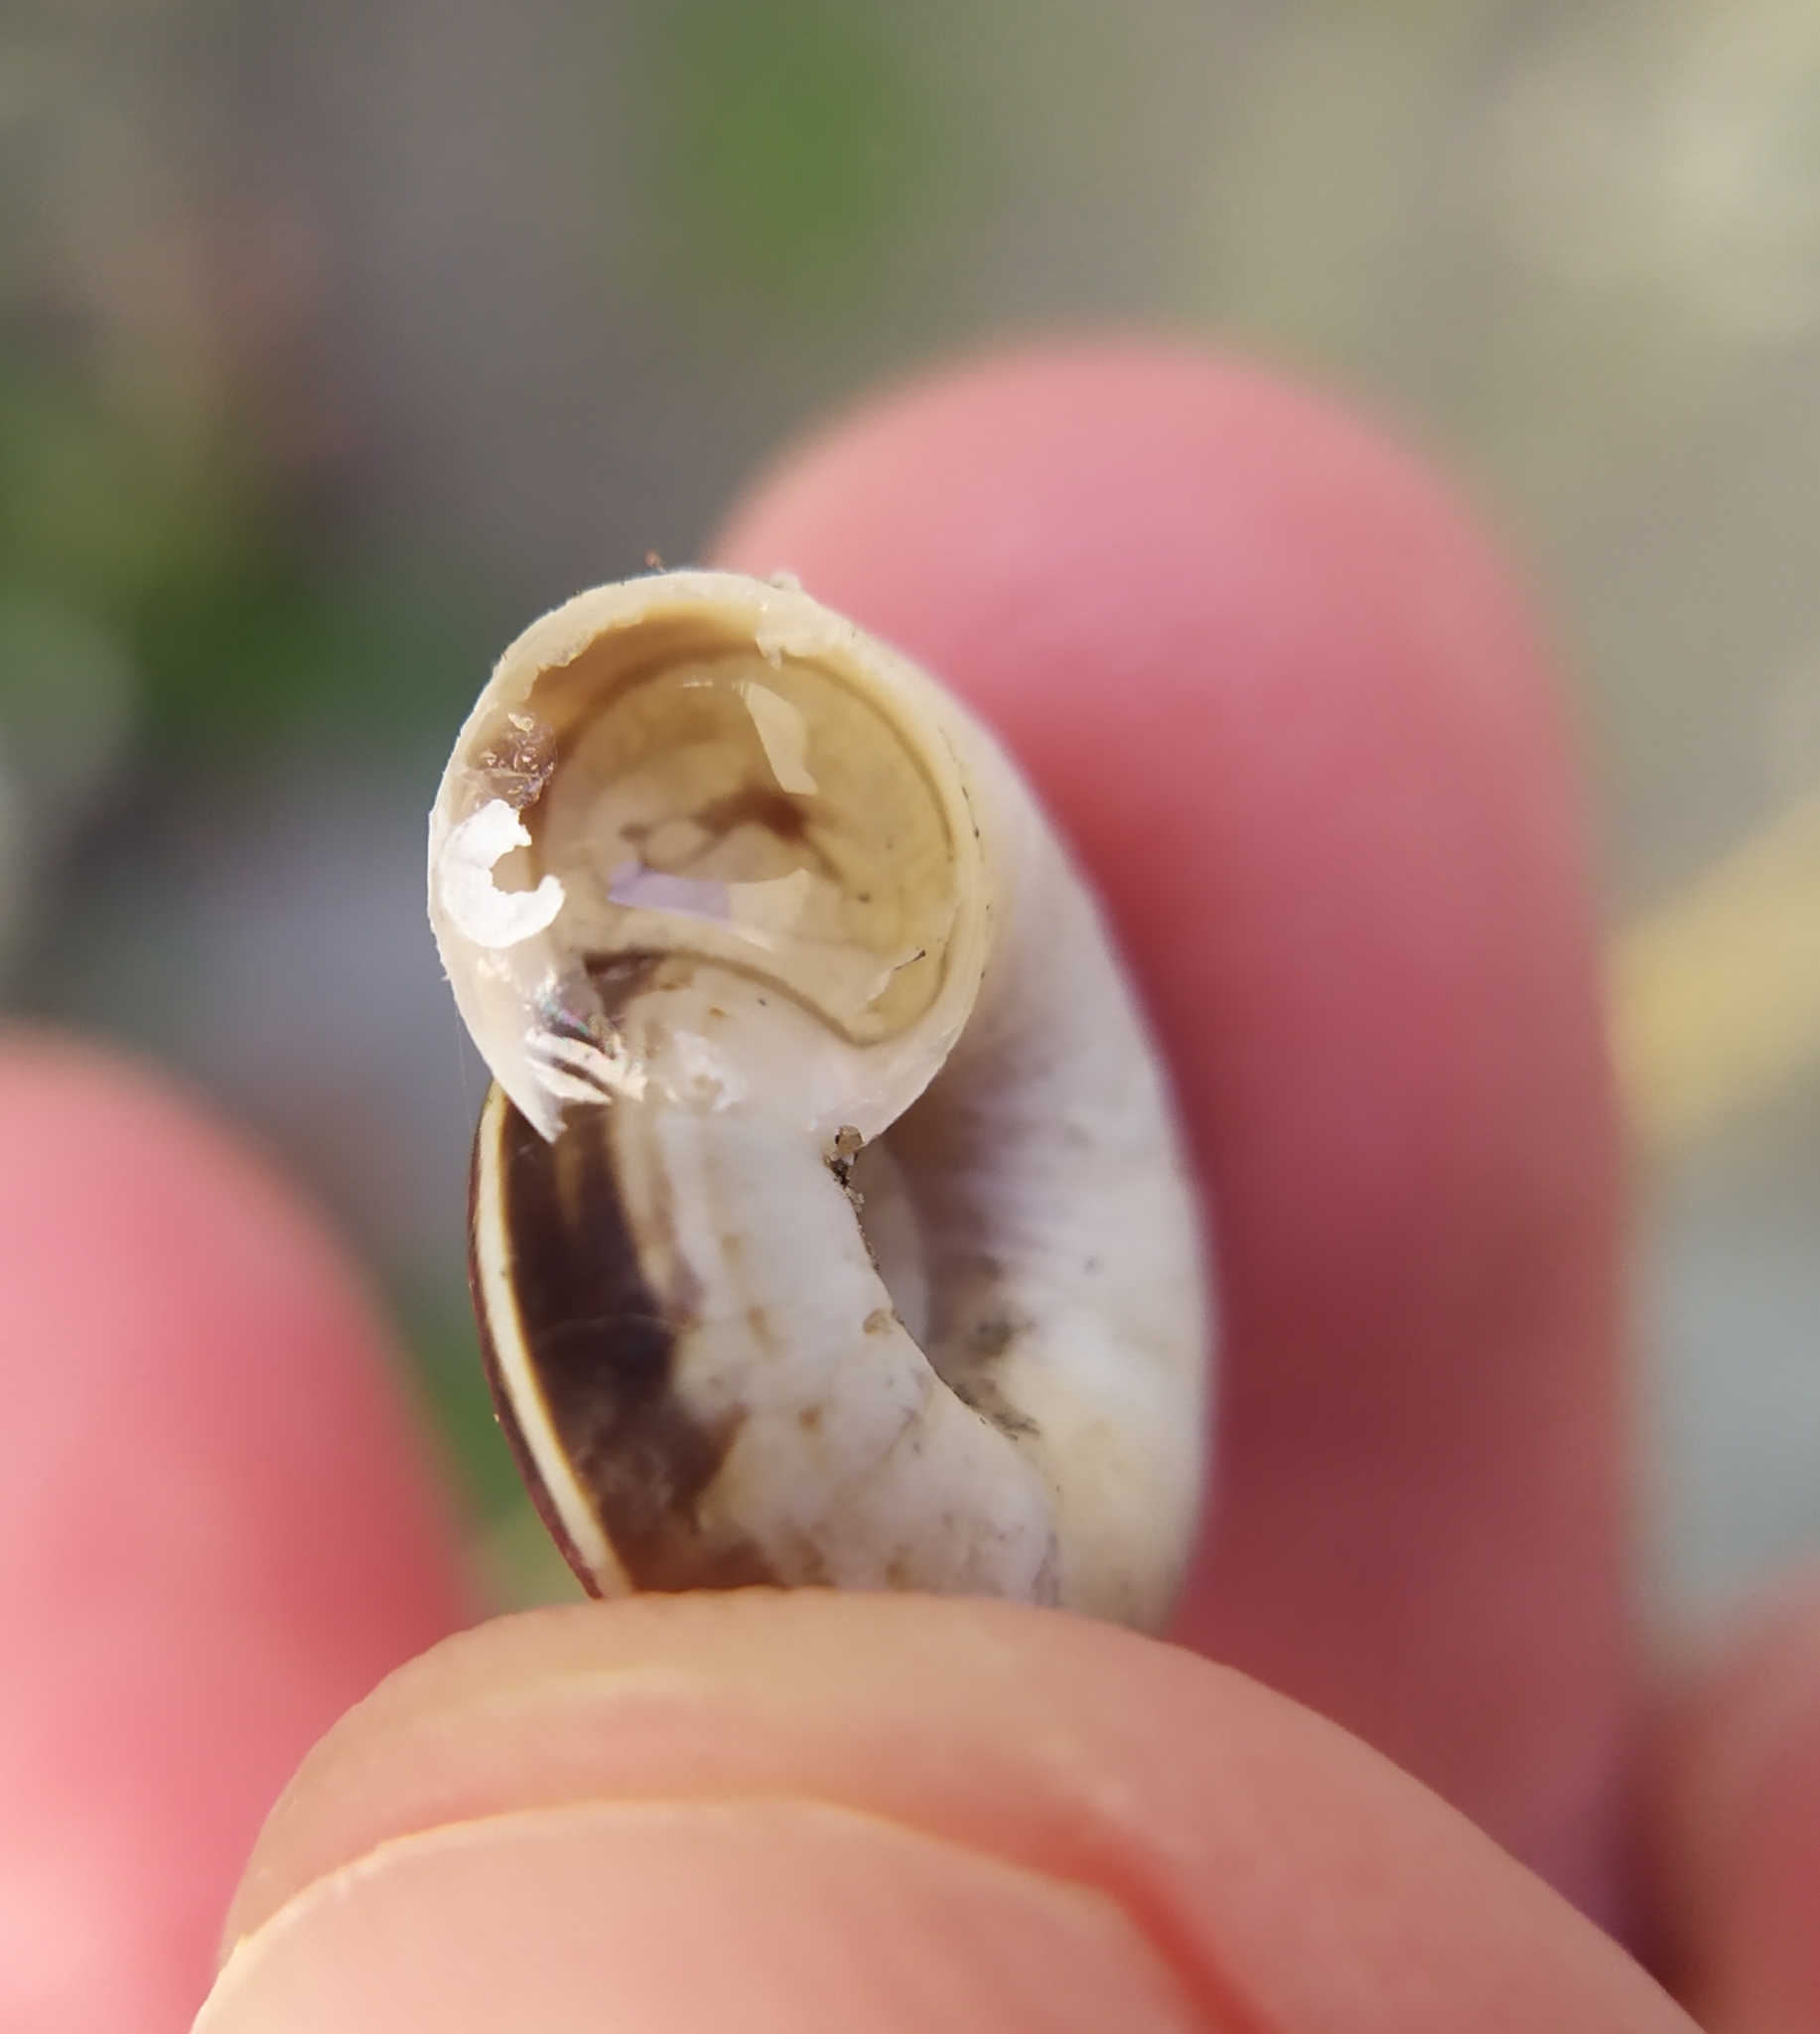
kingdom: Animalia
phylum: Mollusca
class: Gastropoda
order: Stylommatophora
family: Geomitridae
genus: Xerolenta
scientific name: Xerolenta obvia
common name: White heath snail
